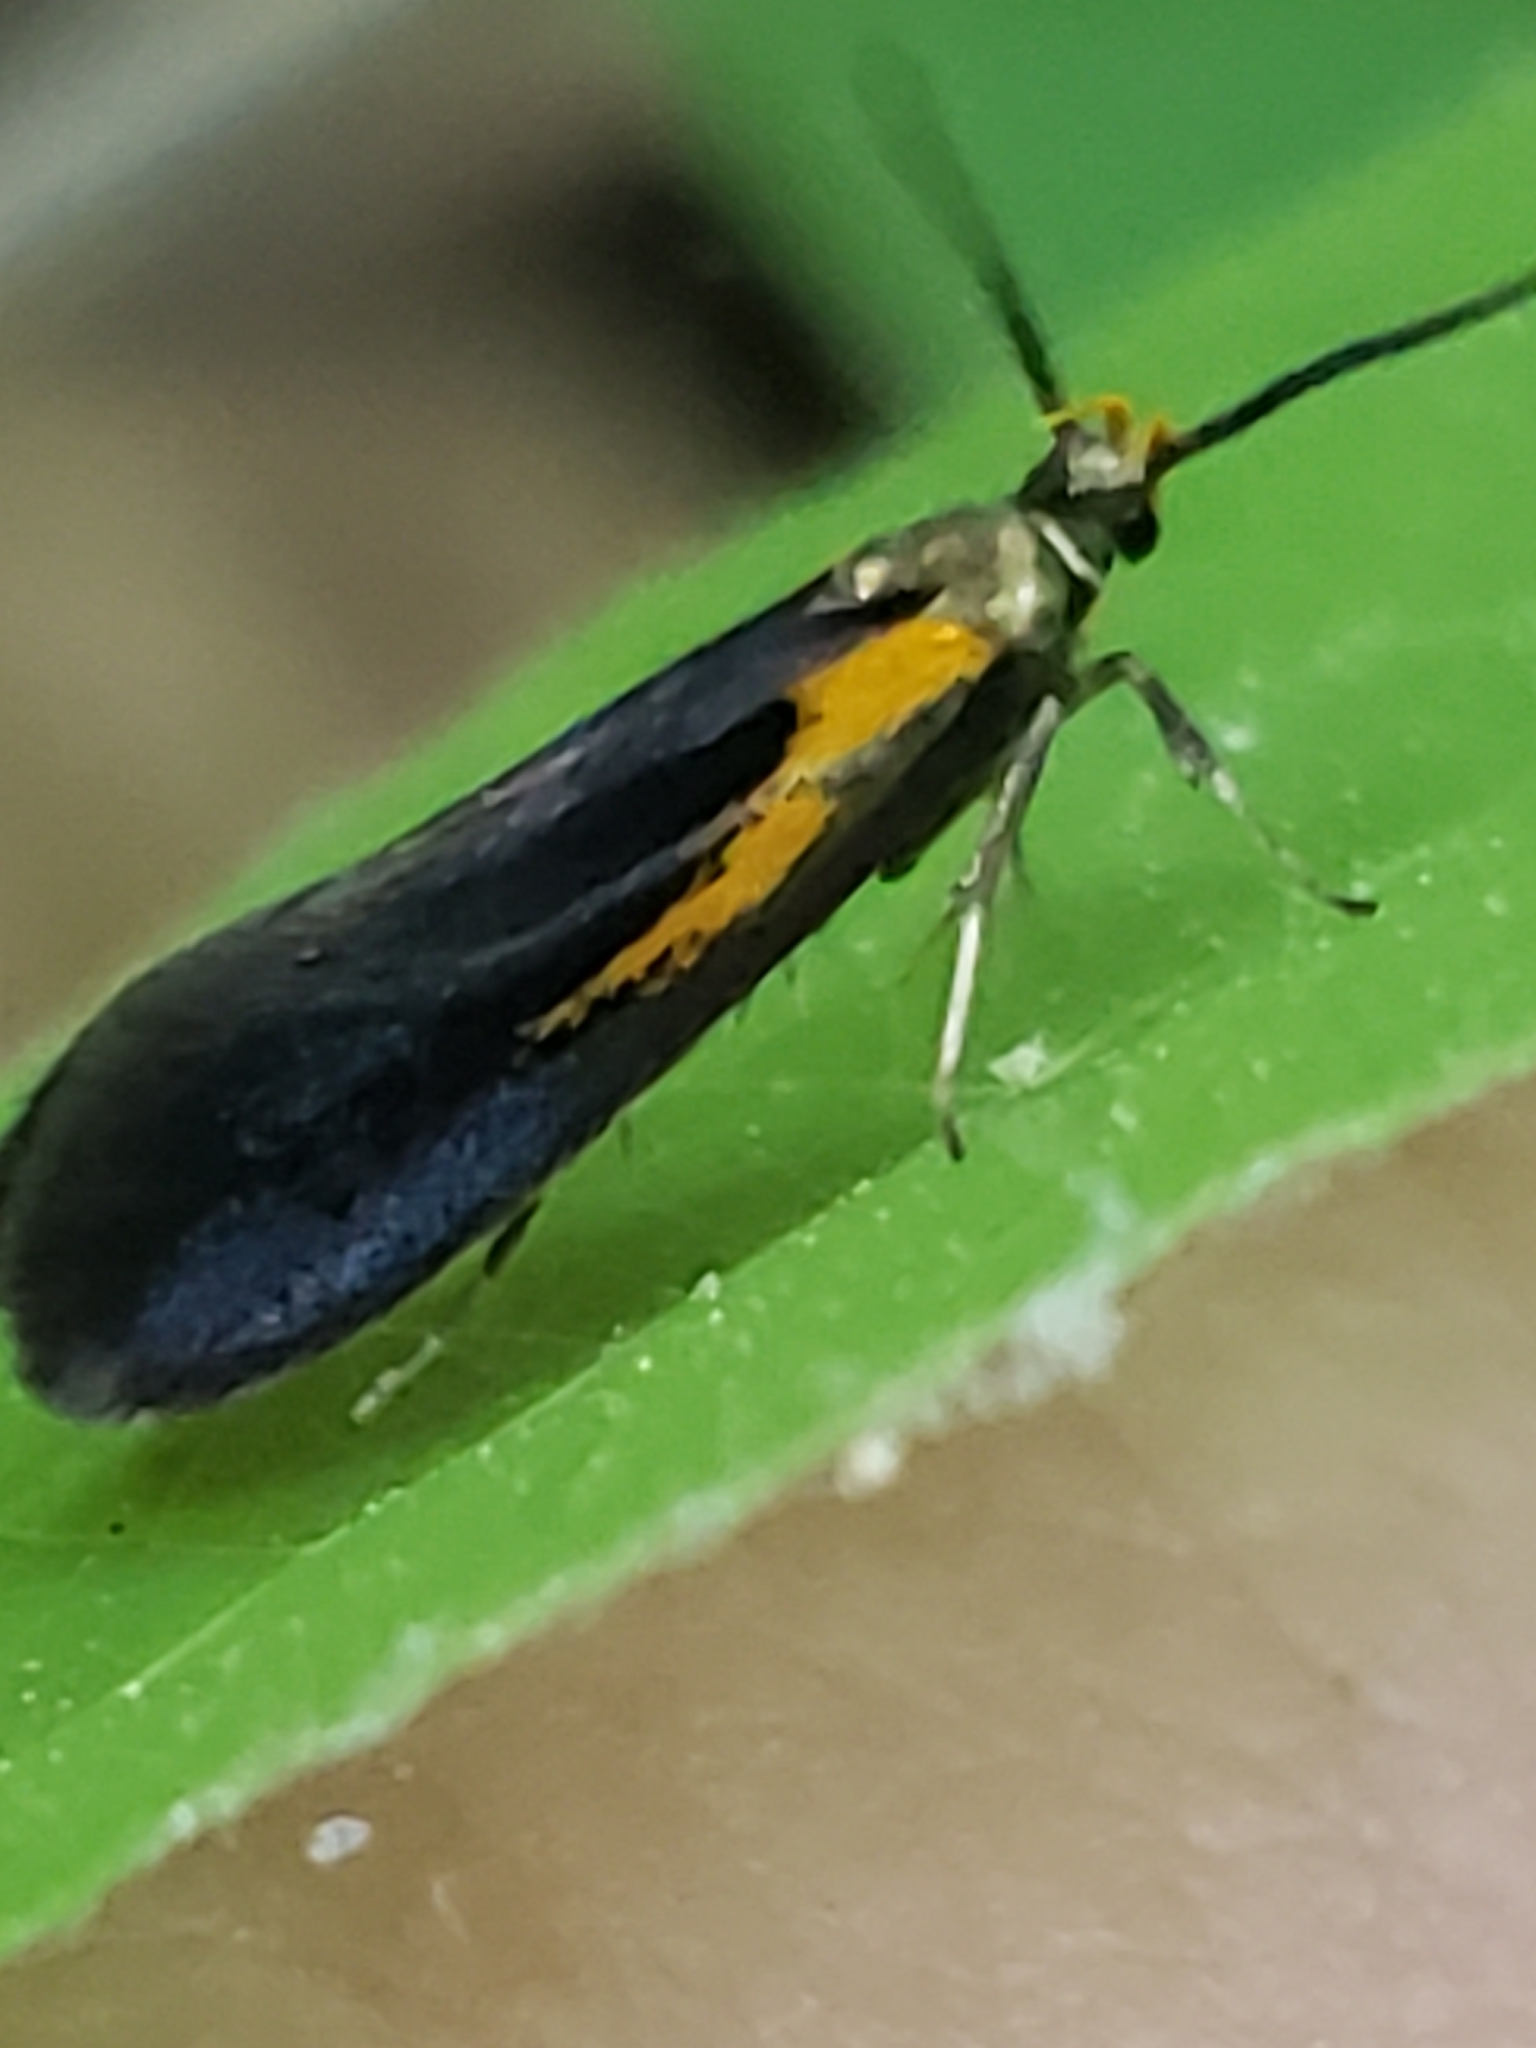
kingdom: Animalia
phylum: Arthropoda
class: Insecta
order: Lepidoptera
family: Oecophoridae
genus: Mathildana
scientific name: Mathildana newmanella
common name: Newman's mathildana moth
